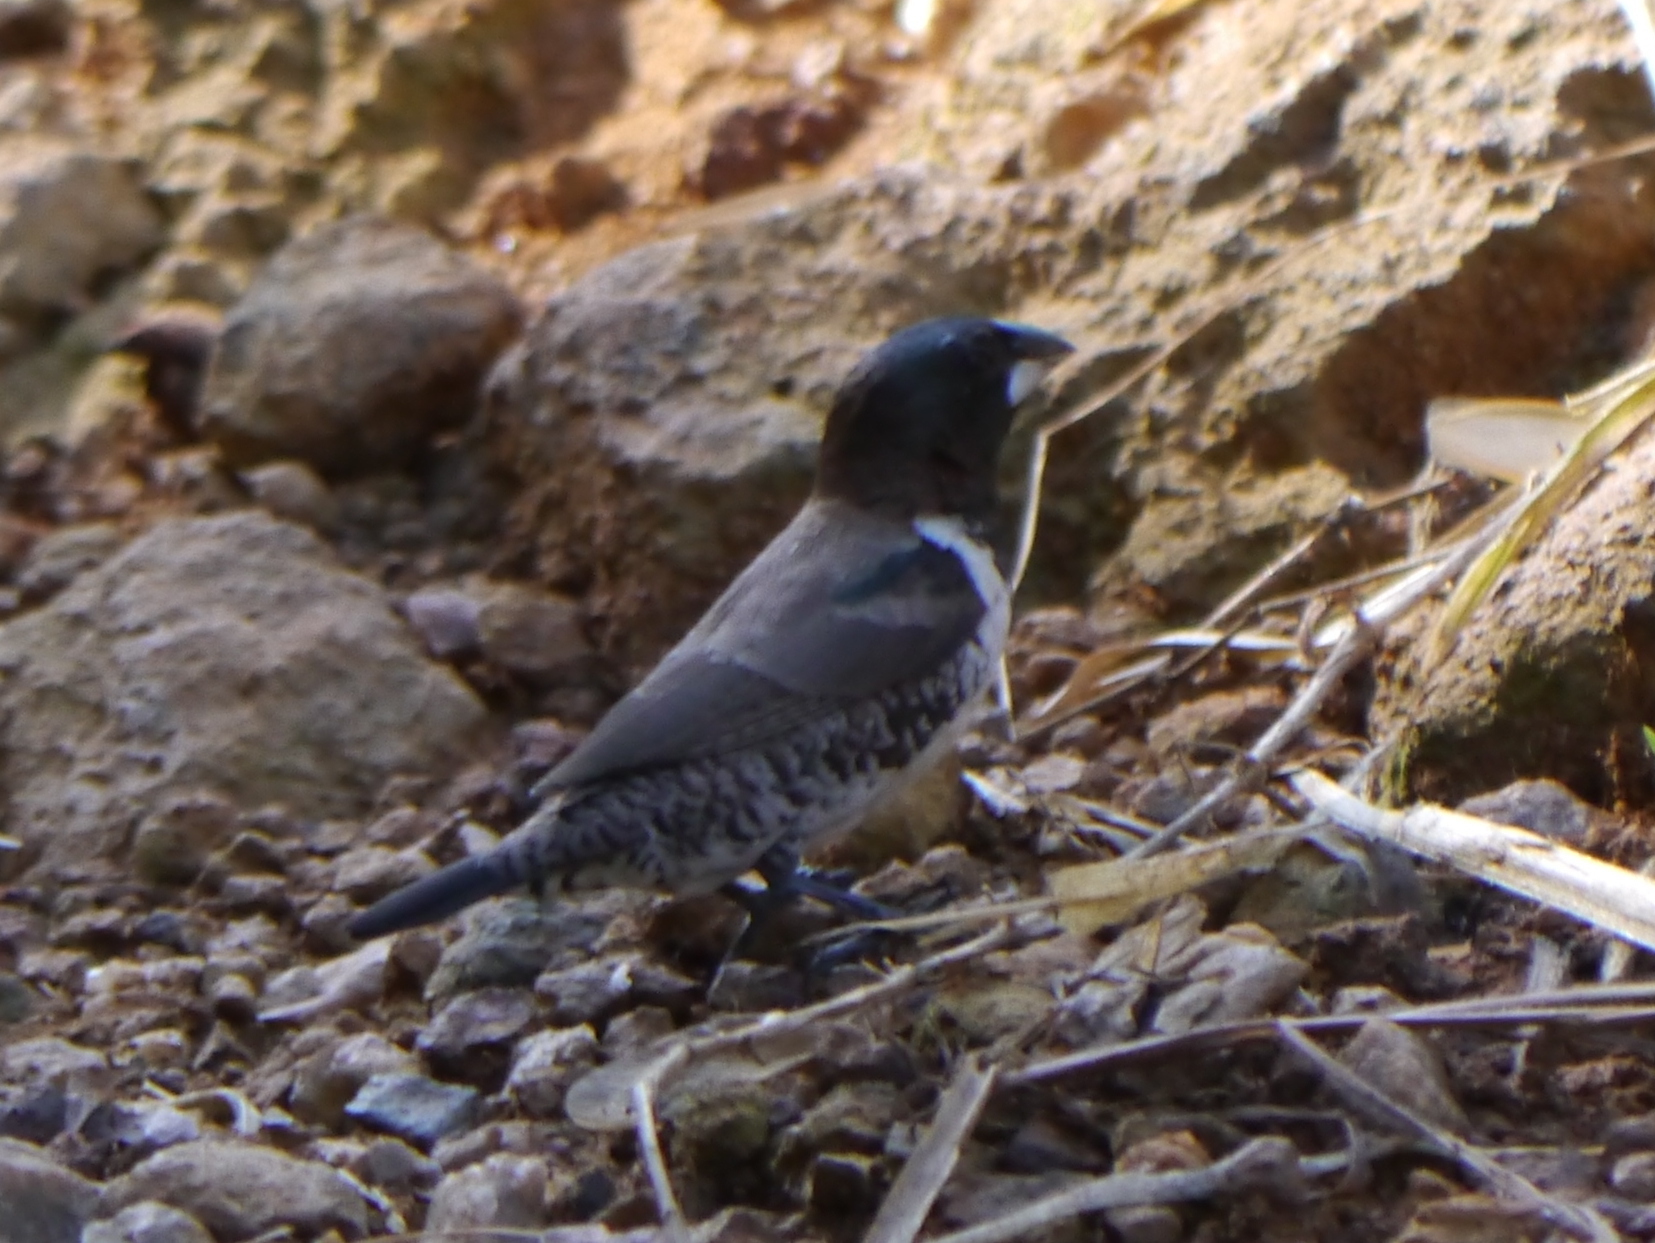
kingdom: Animalia
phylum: Chordata
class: Aves
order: Passeriformes
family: Estrildidae
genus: Lonchura
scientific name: Lonchura cucullata
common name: Bronze mannikin
